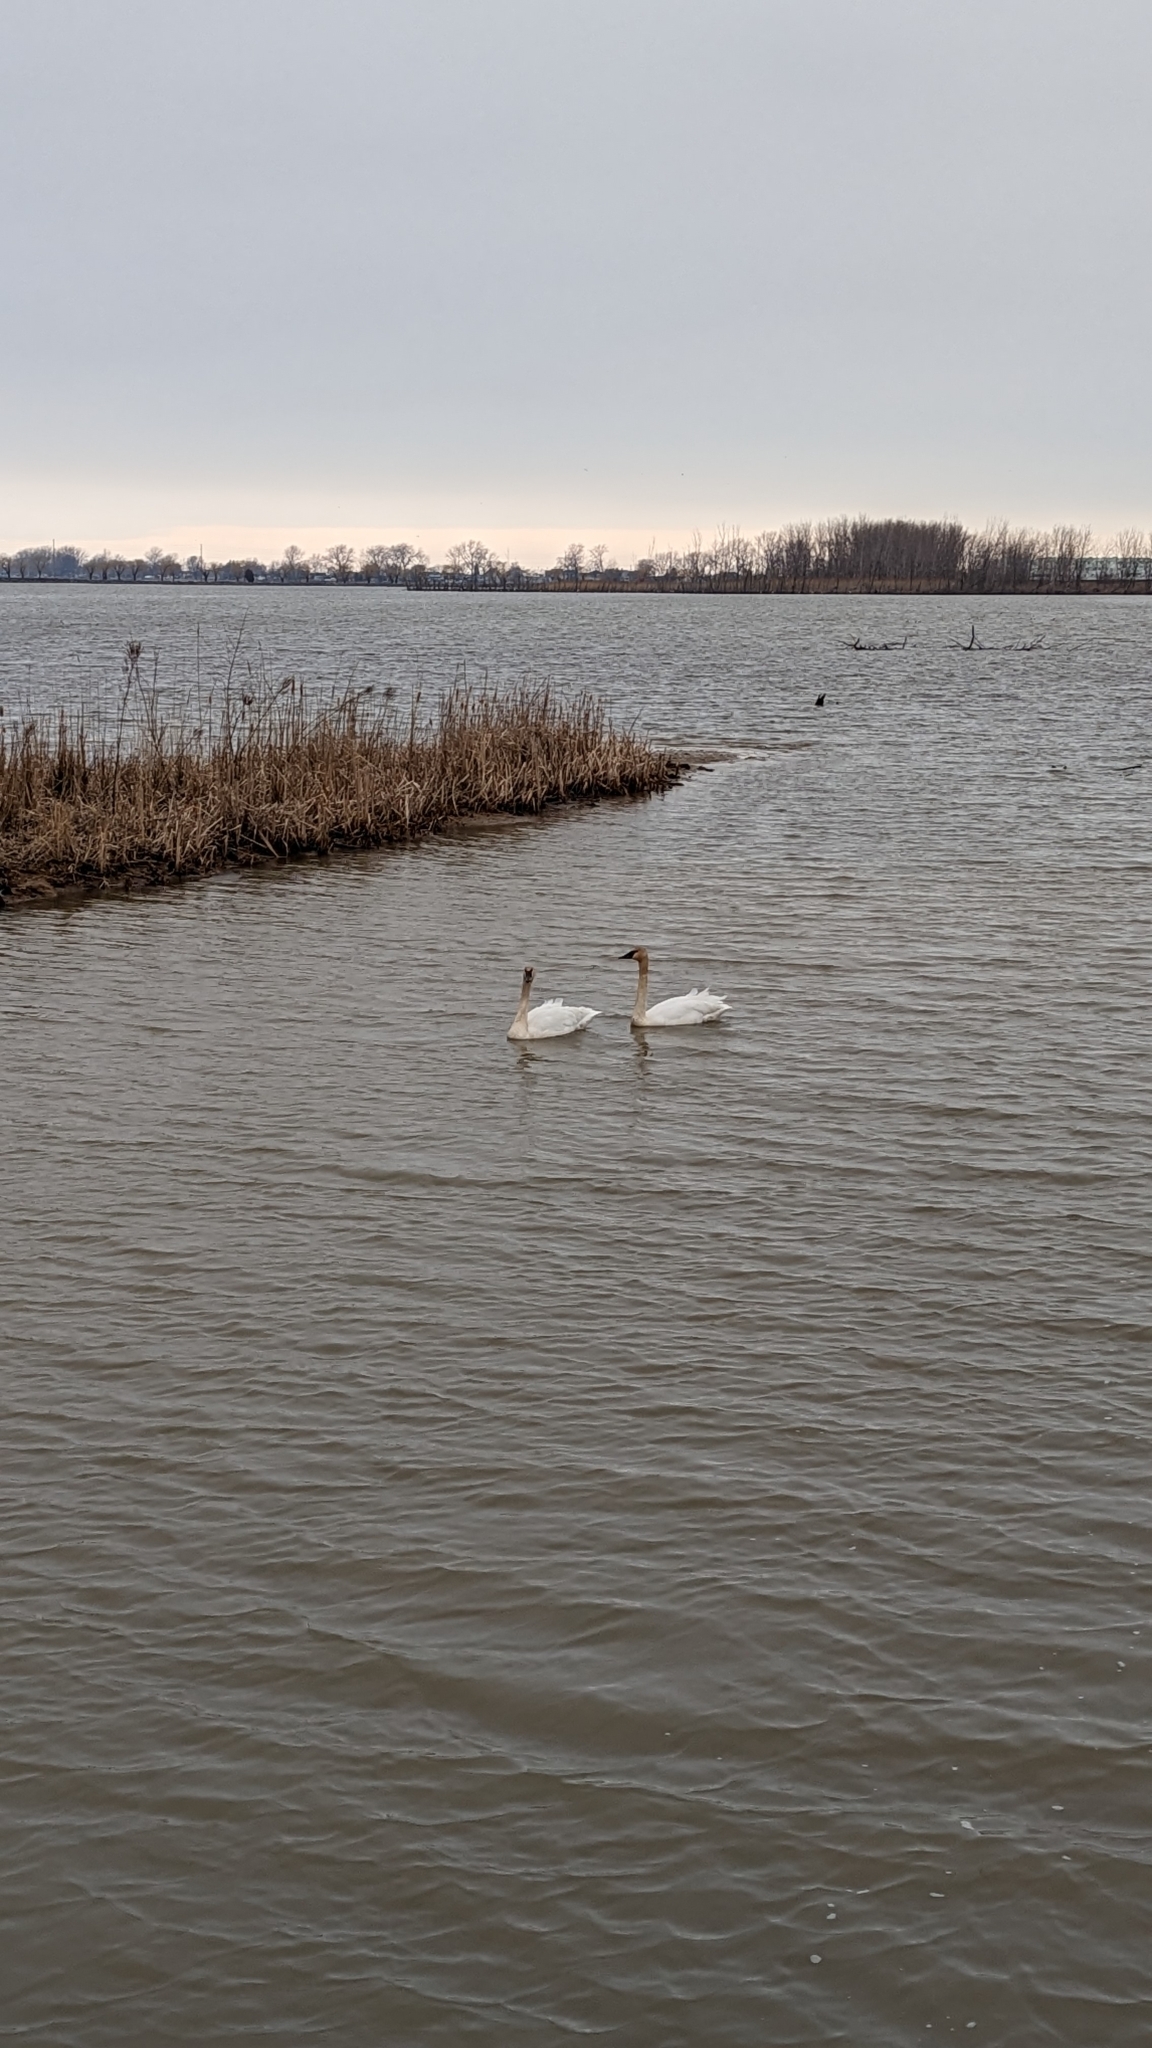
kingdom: Animalia
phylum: Chordata
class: Aves
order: Anseriformes
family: Anatidae
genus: Cygnus
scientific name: Cygnus buccinator
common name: Trumpeter swan
